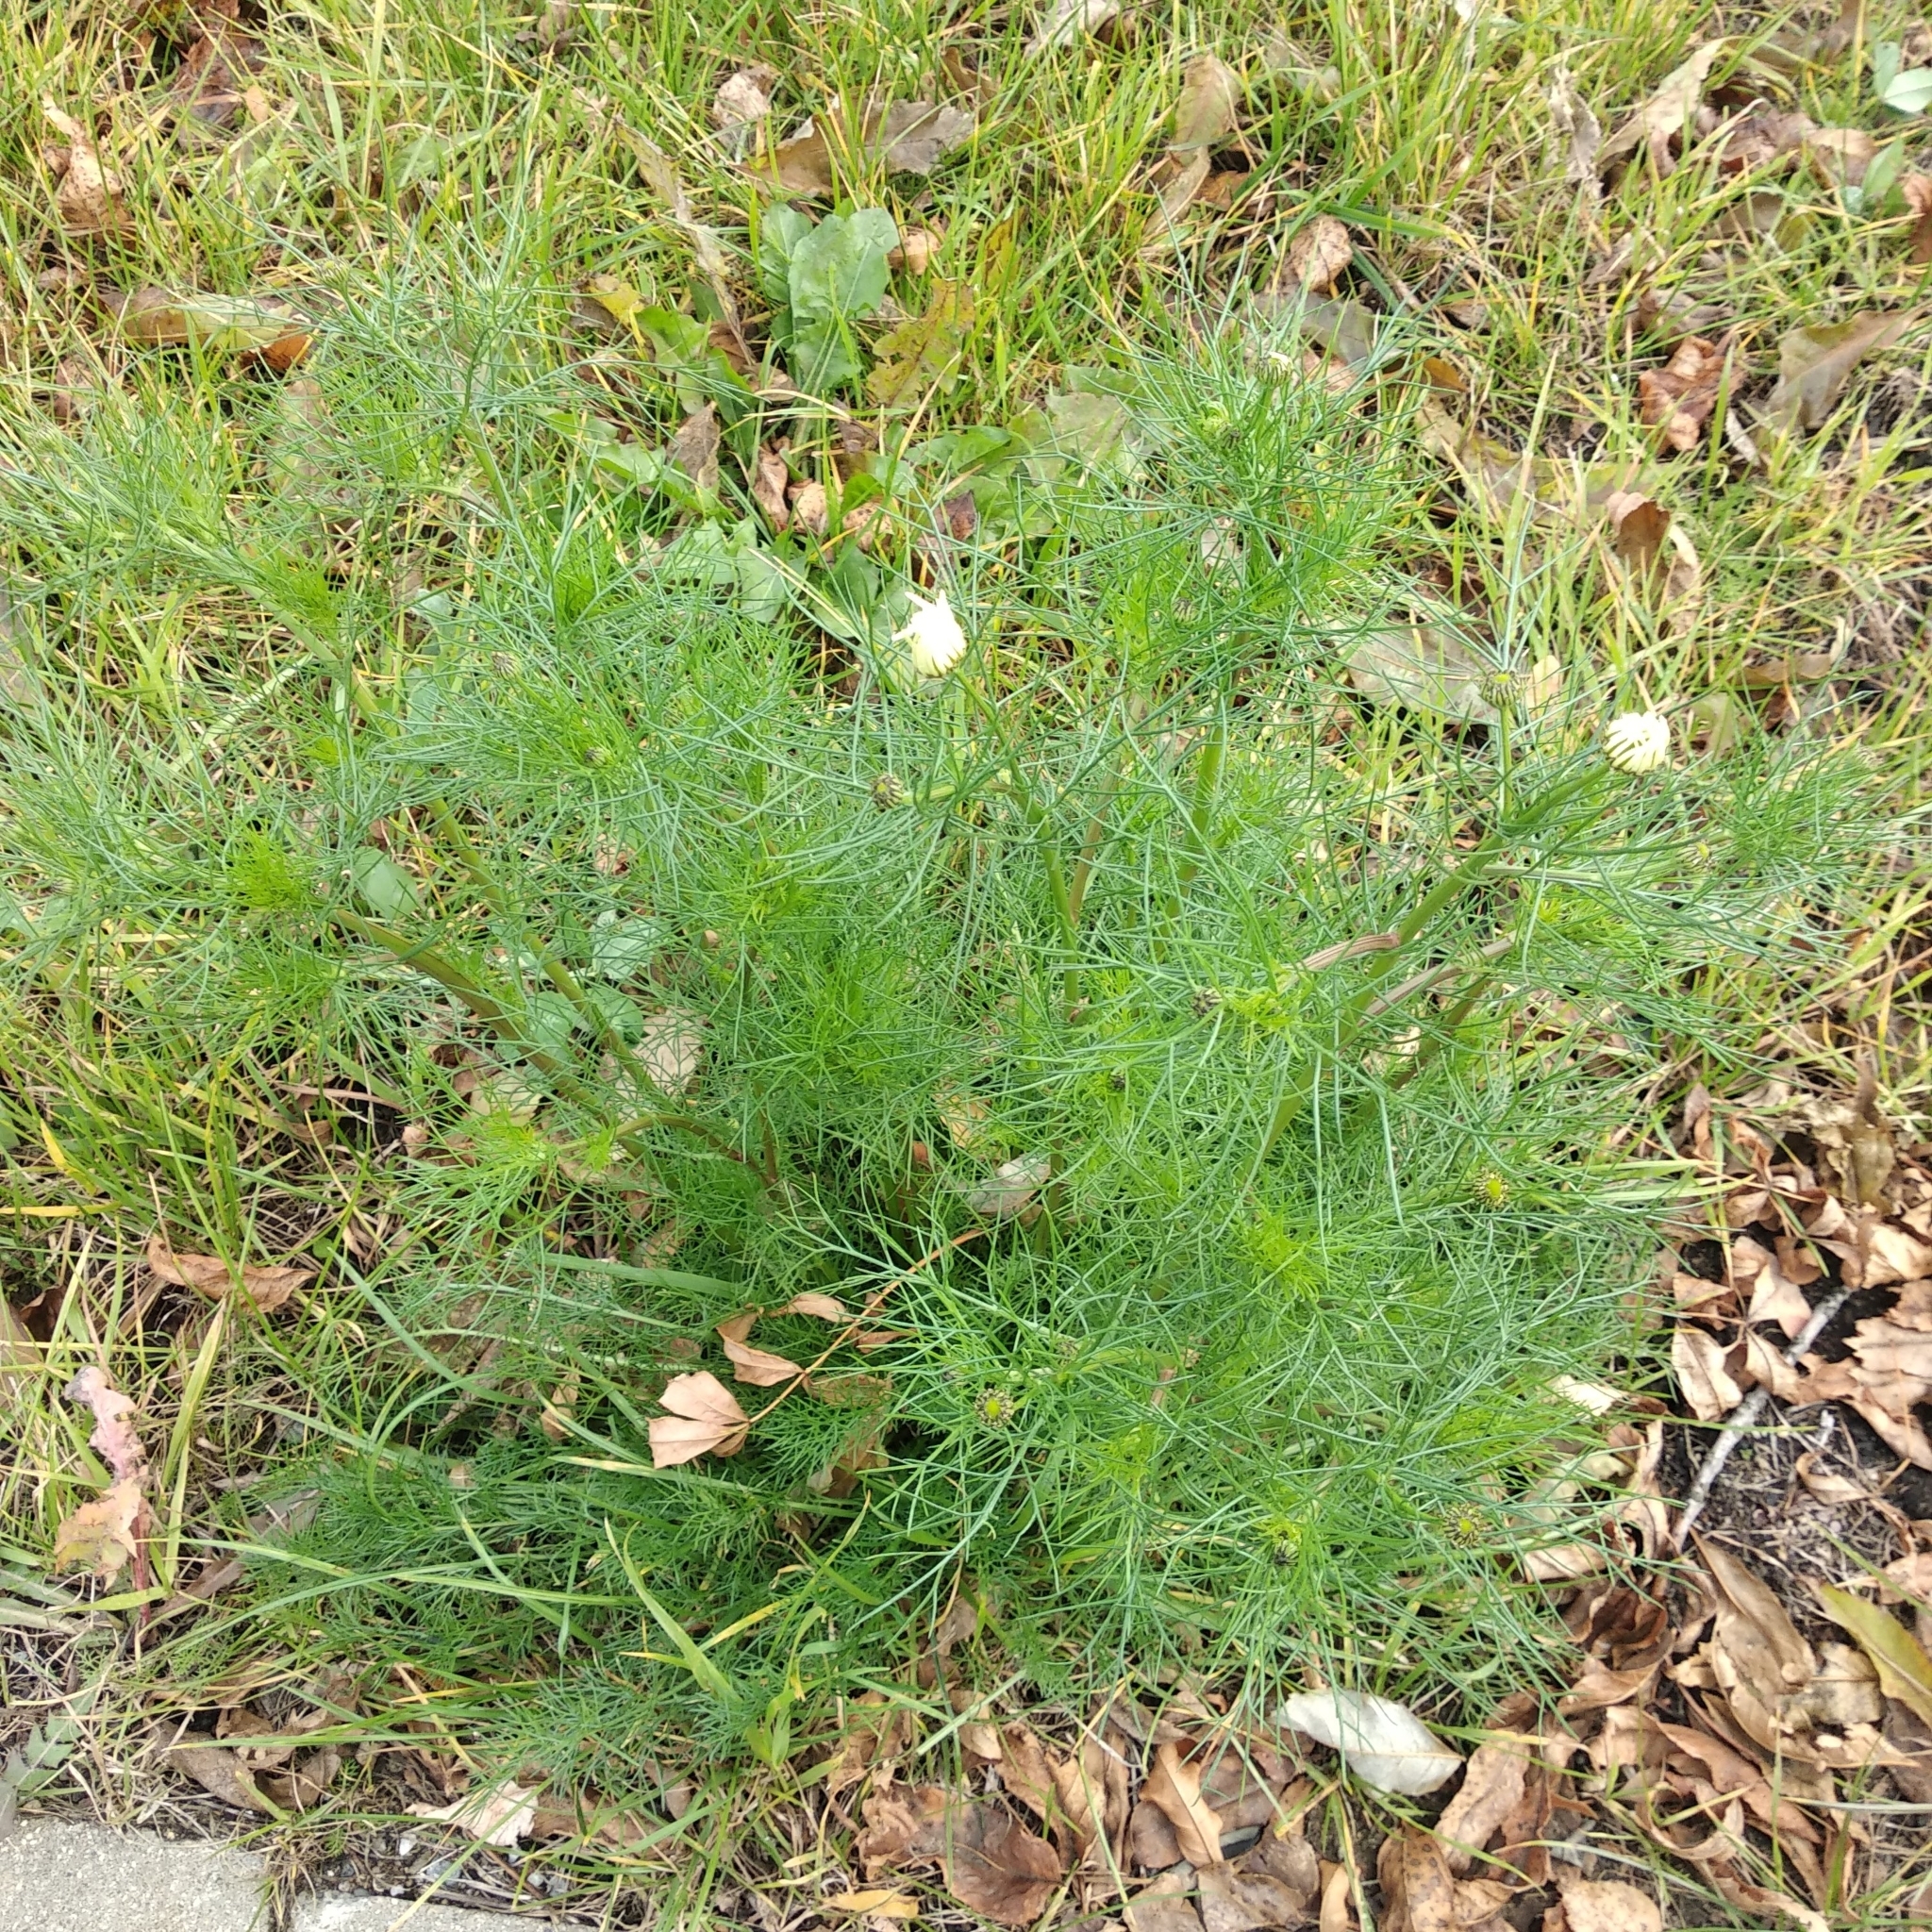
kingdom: Plantae
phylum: Tracheophyta
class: Magnoliopsida
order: Asterales
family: Asteraceae
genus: Tripleurospermum
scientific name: Tripleurospermum inodorum
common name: Scentless mayweed
